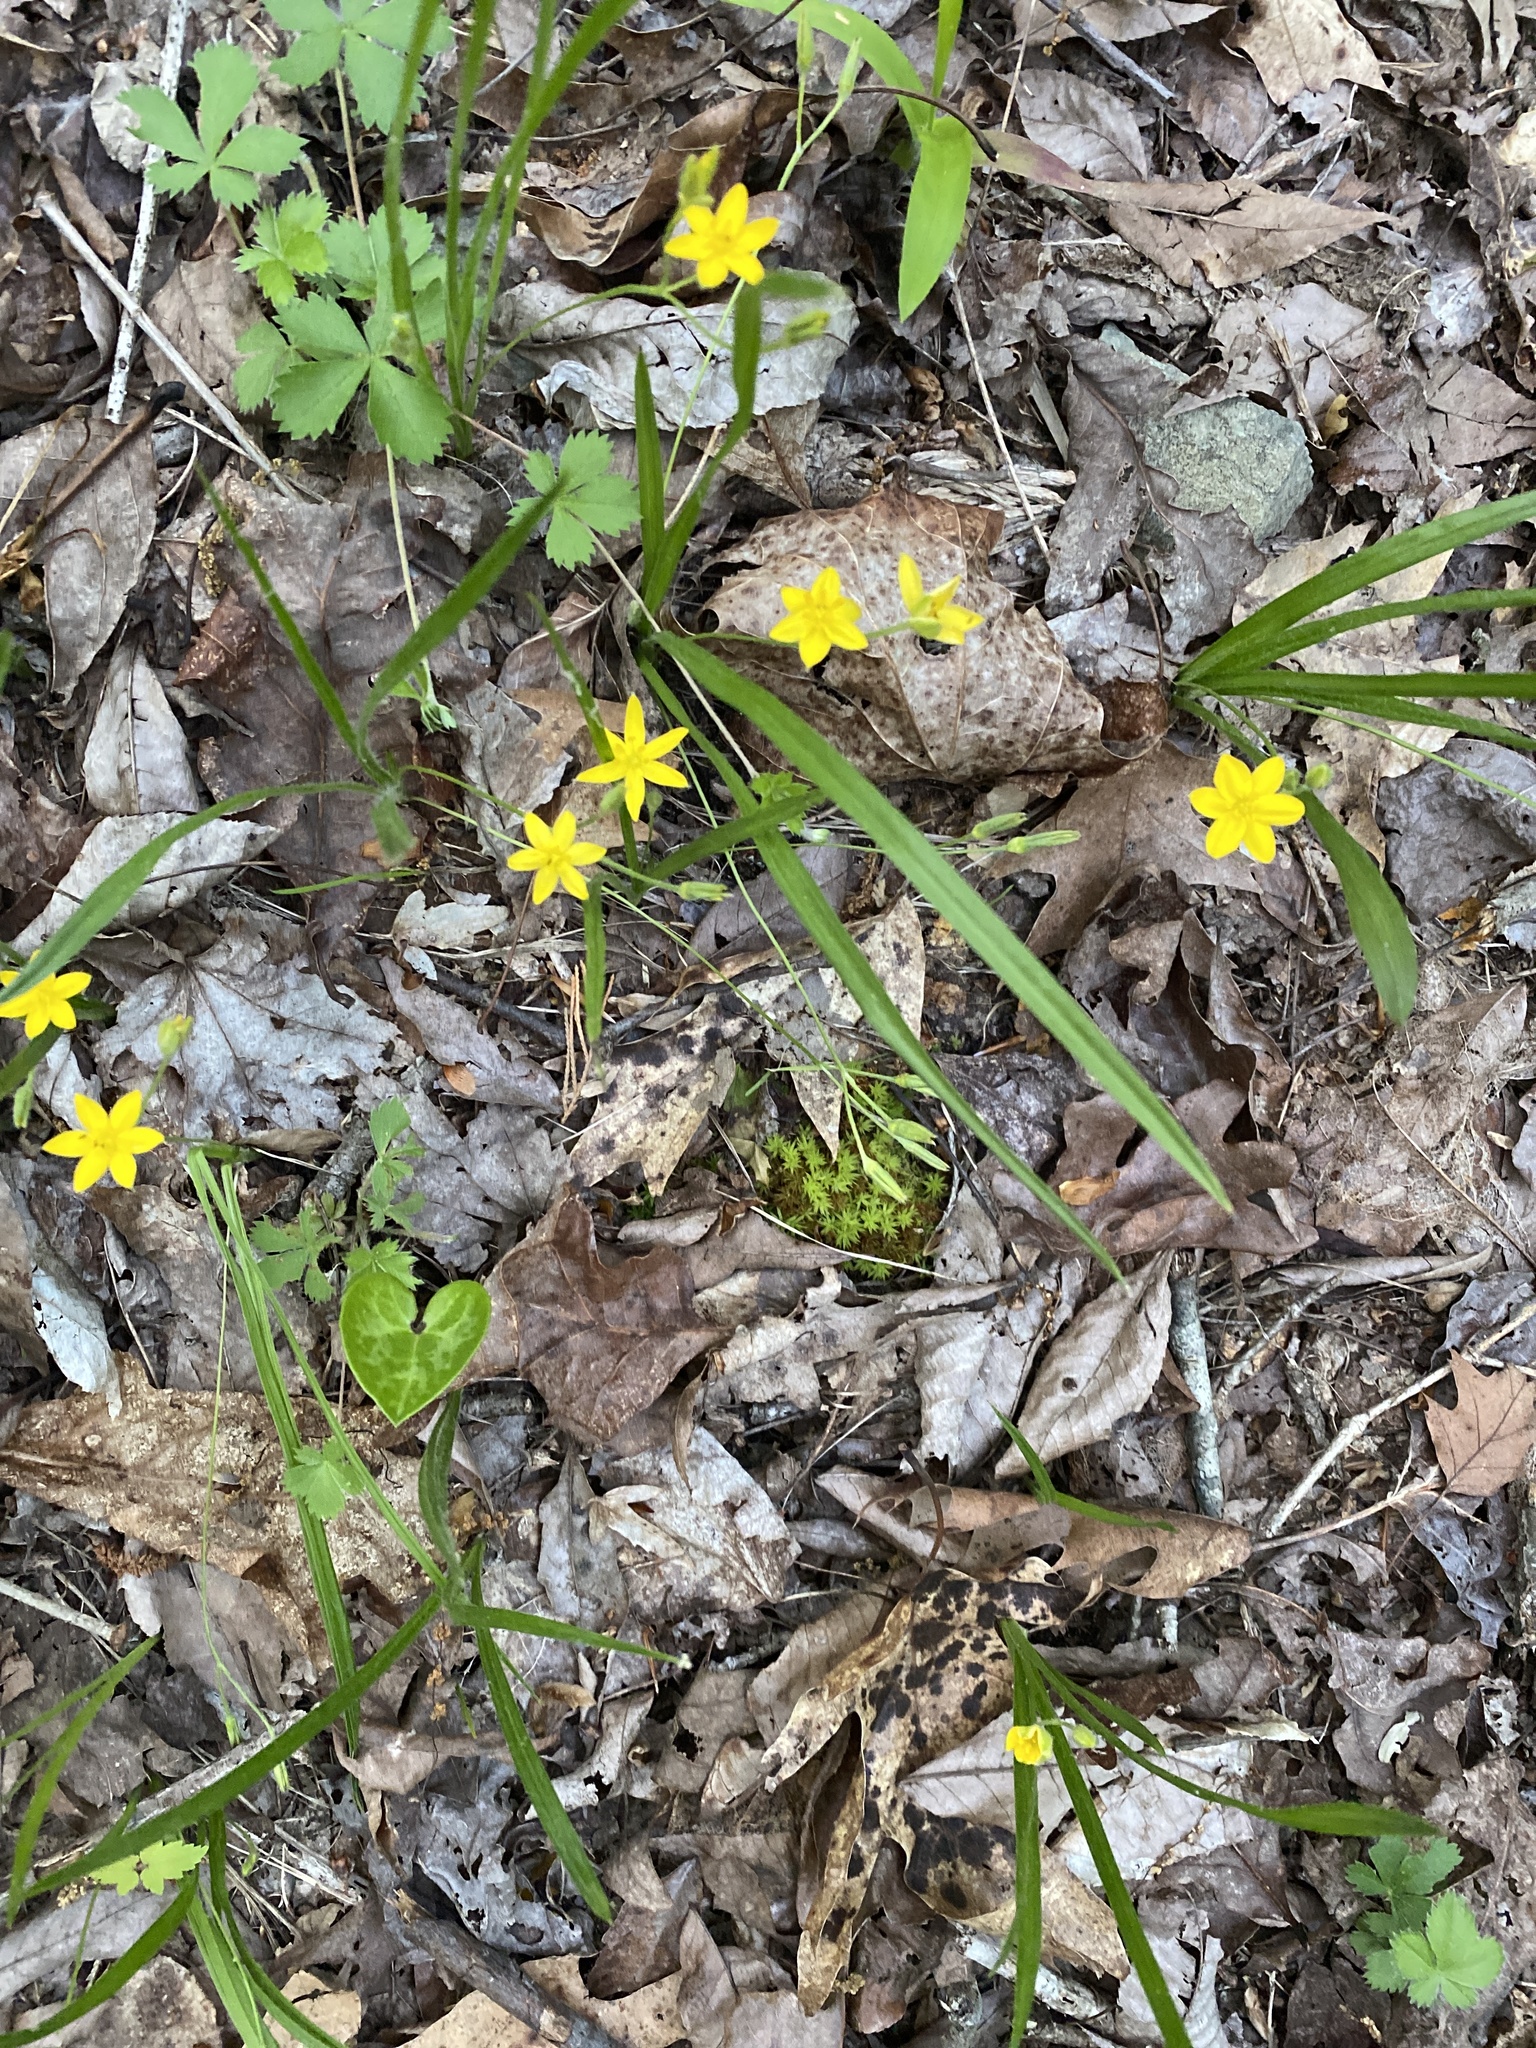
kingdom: Plantae
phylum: Tracheophyta
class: Liliopsida
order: Asparagales
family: Hypoxidaceae
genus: Hypoxis
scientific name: Hypoxis hirsuta
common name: Common goldstar
